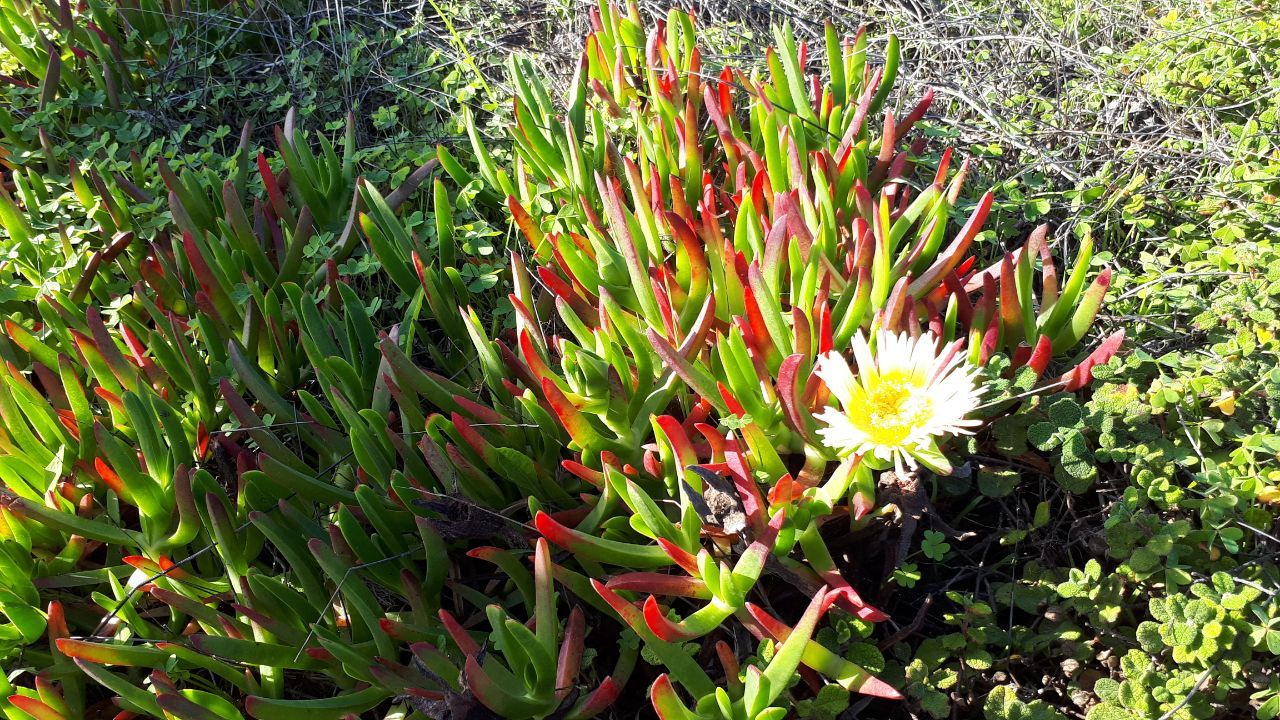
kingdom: Plantae
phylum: Tracheophyta
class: Magnoliopsida
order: Caryophyllales
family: Aizoaceae
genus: Carpobrotus
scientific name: Carpobrotus edulis
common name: Hottentot-fig
